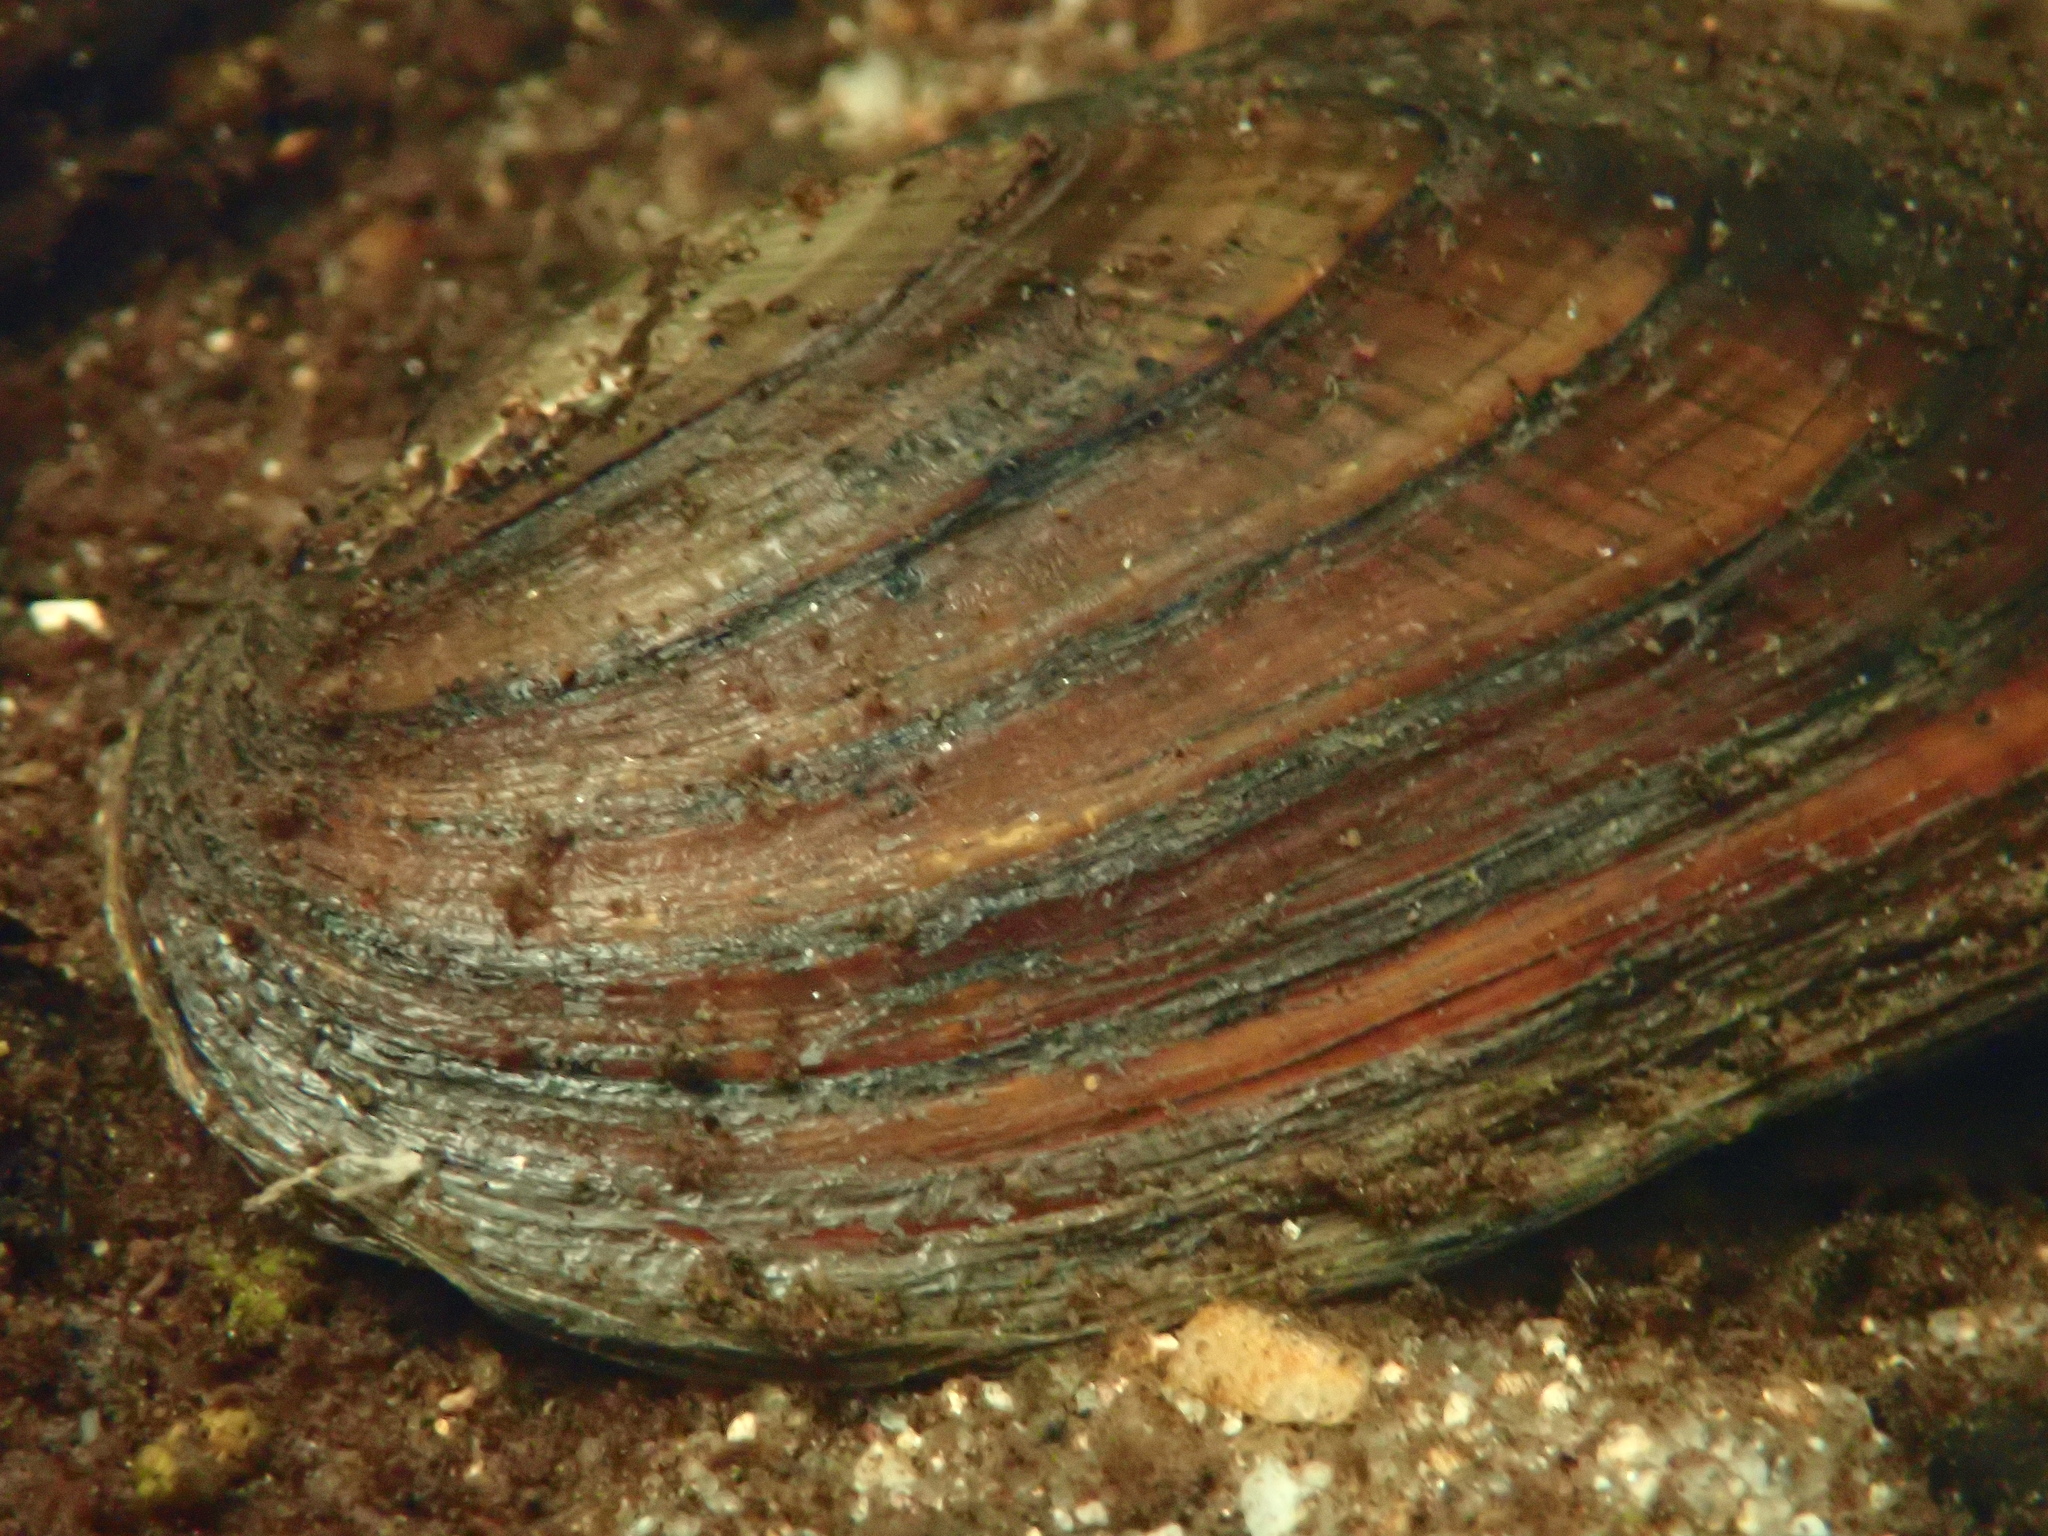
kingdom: Animalia
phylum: Mollusca
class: Bivalvia
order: Unionida
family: Unionidae
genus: Elliptio
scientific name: Elliptio complanata
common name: Eastern elliptio
